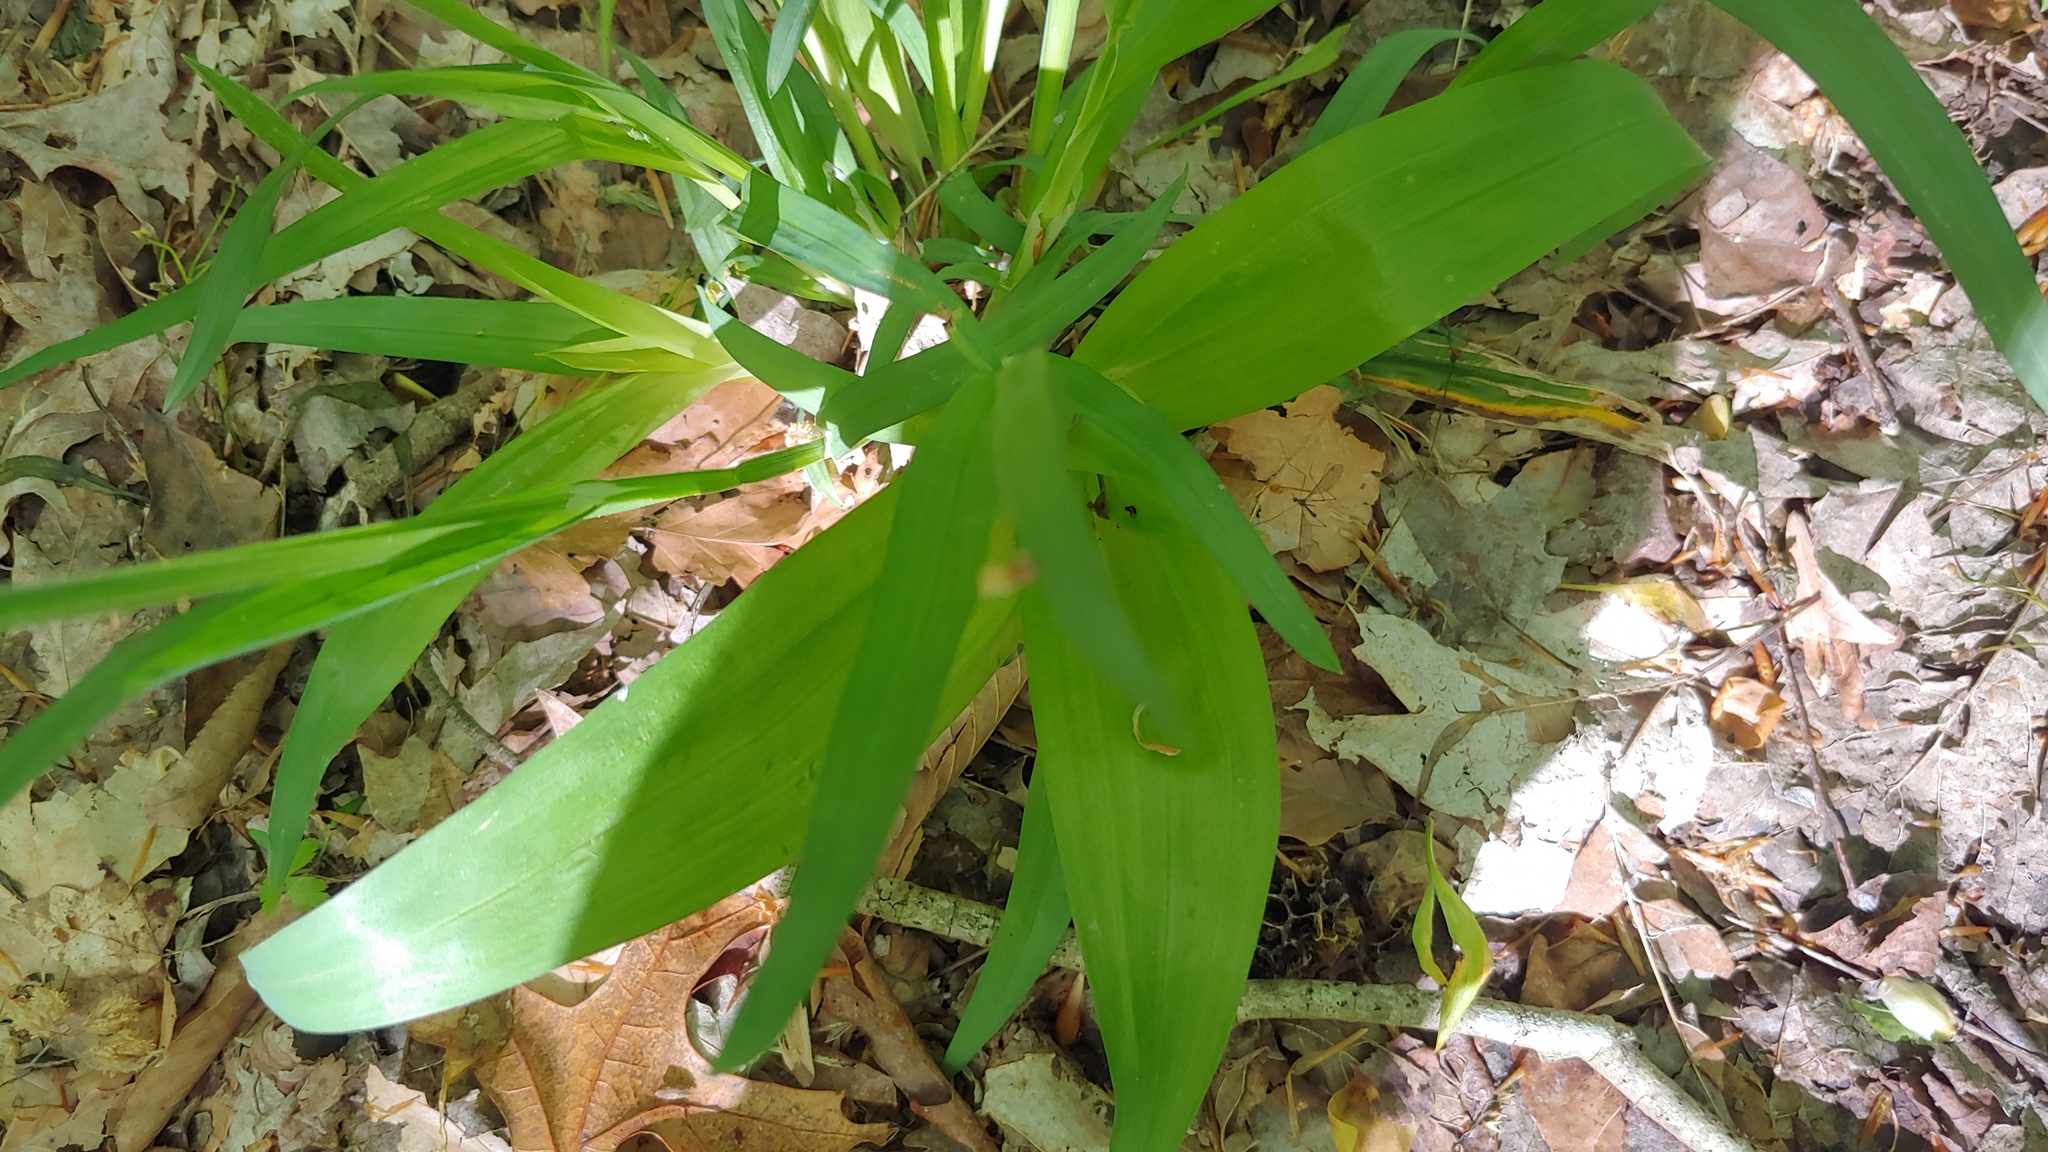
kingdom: Plantae
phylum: Tracheophyta
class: Liliopsida
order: Poales
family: Cyperaceae
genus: Carex
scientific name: Carex albursina
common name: Blunt-scale wood sedge
